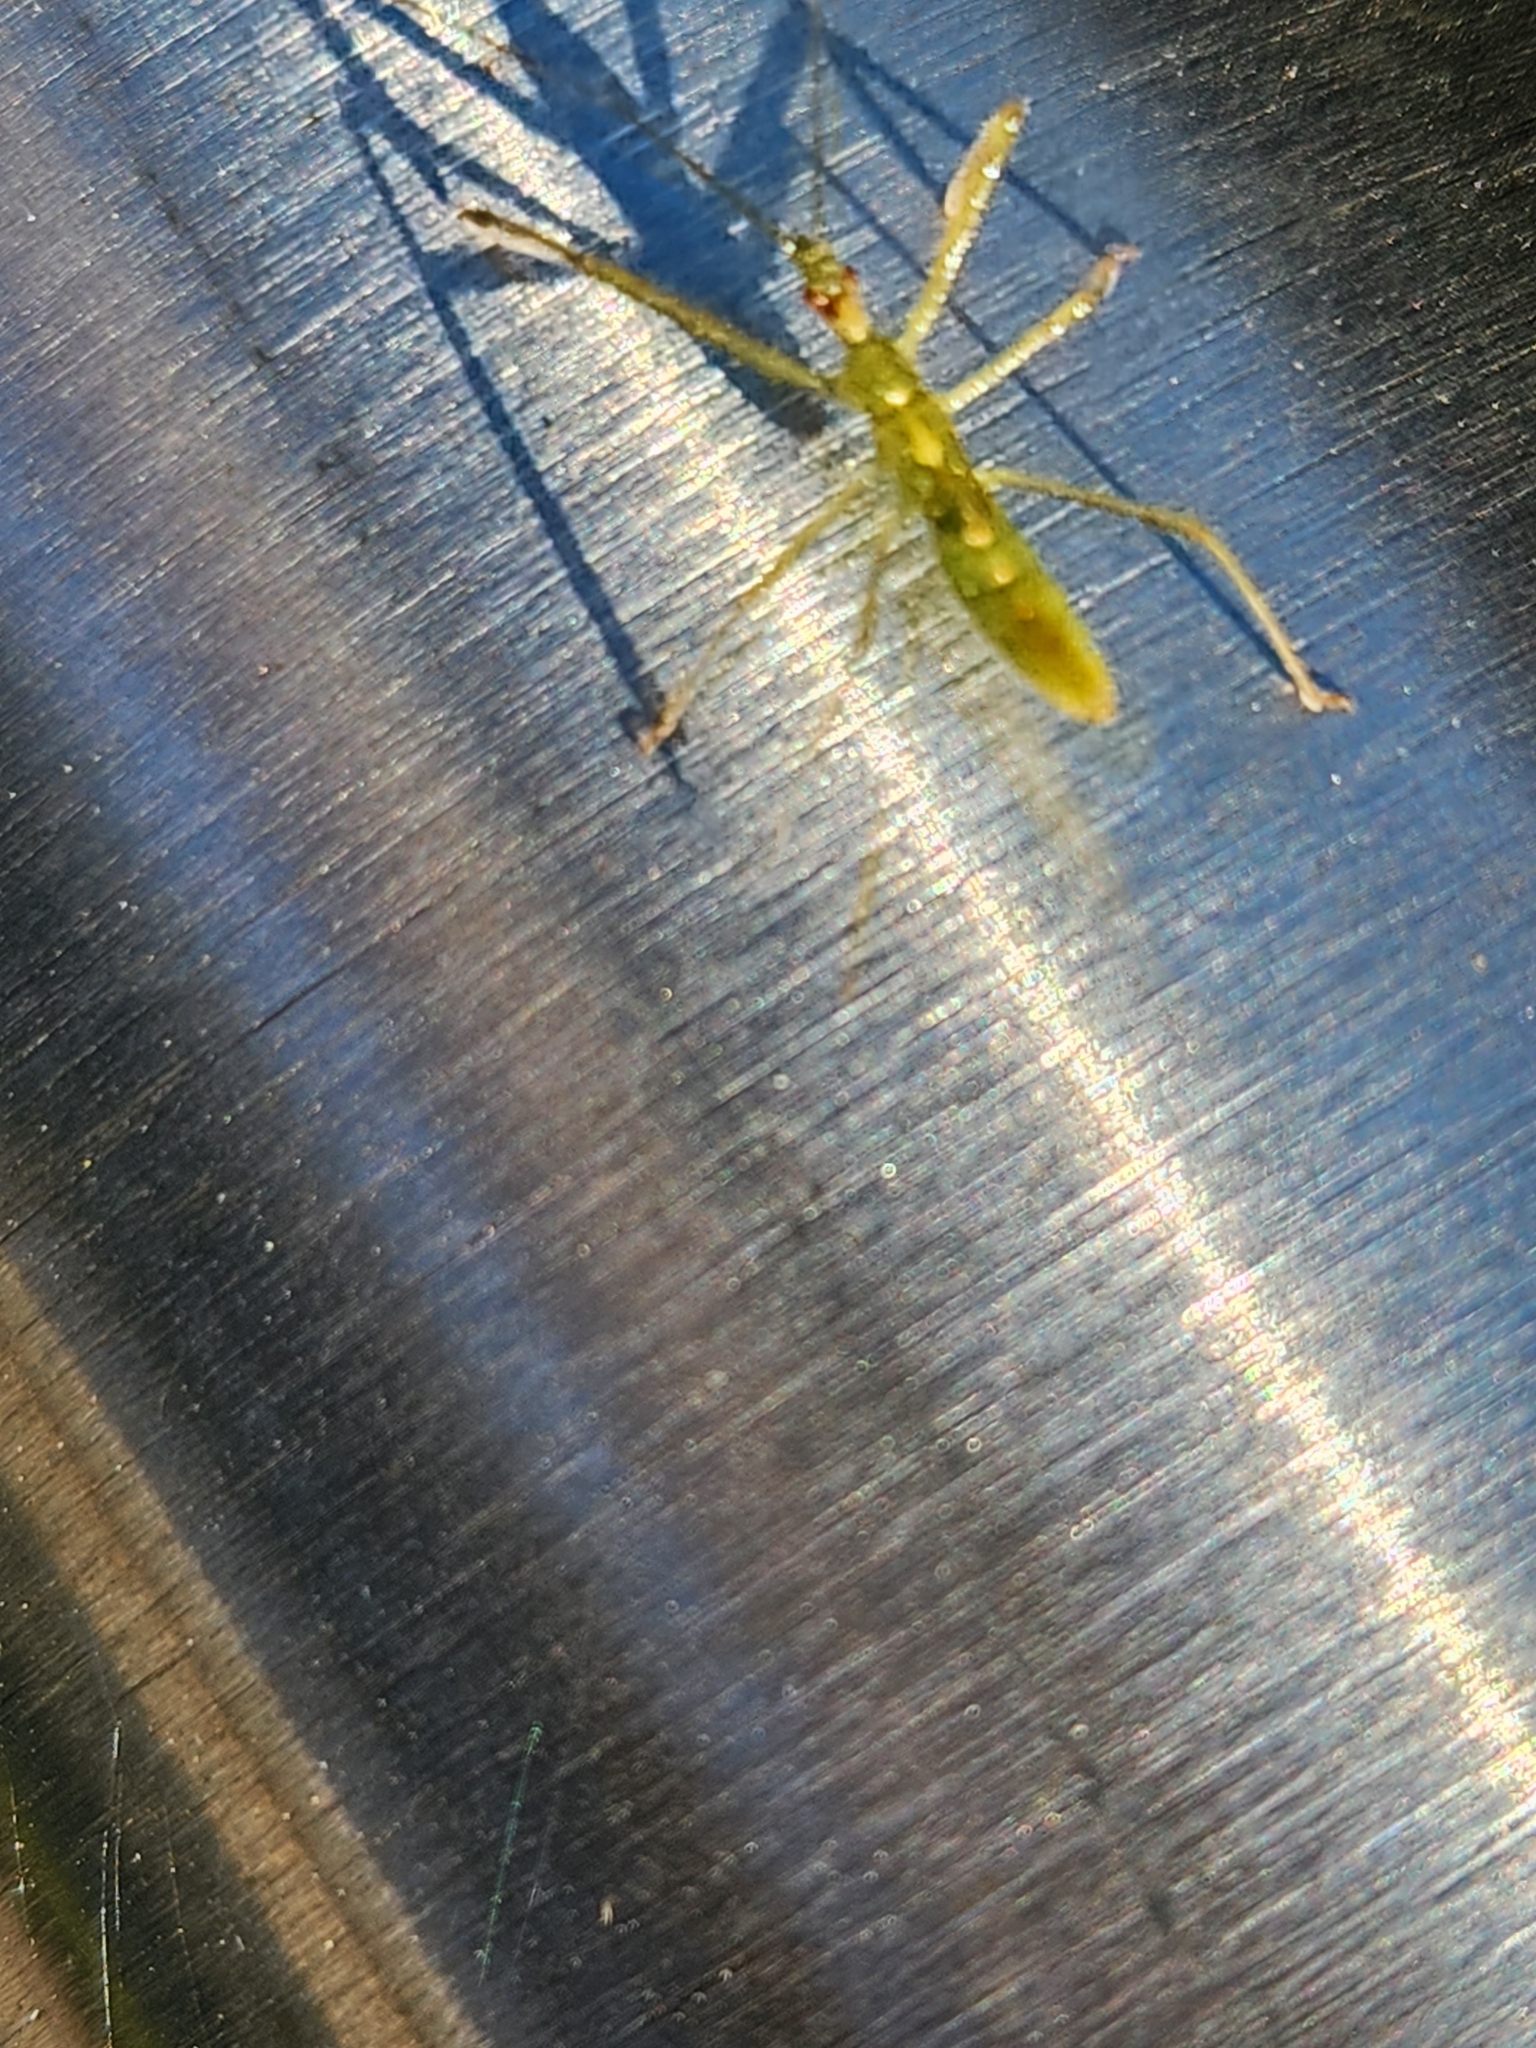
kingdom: Animalia
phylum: Arthropoda
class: Insecta
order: Hemiptera
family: Reduviidae
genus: Zelus
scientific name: Zelus luridus
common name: Pale green assassin bug
